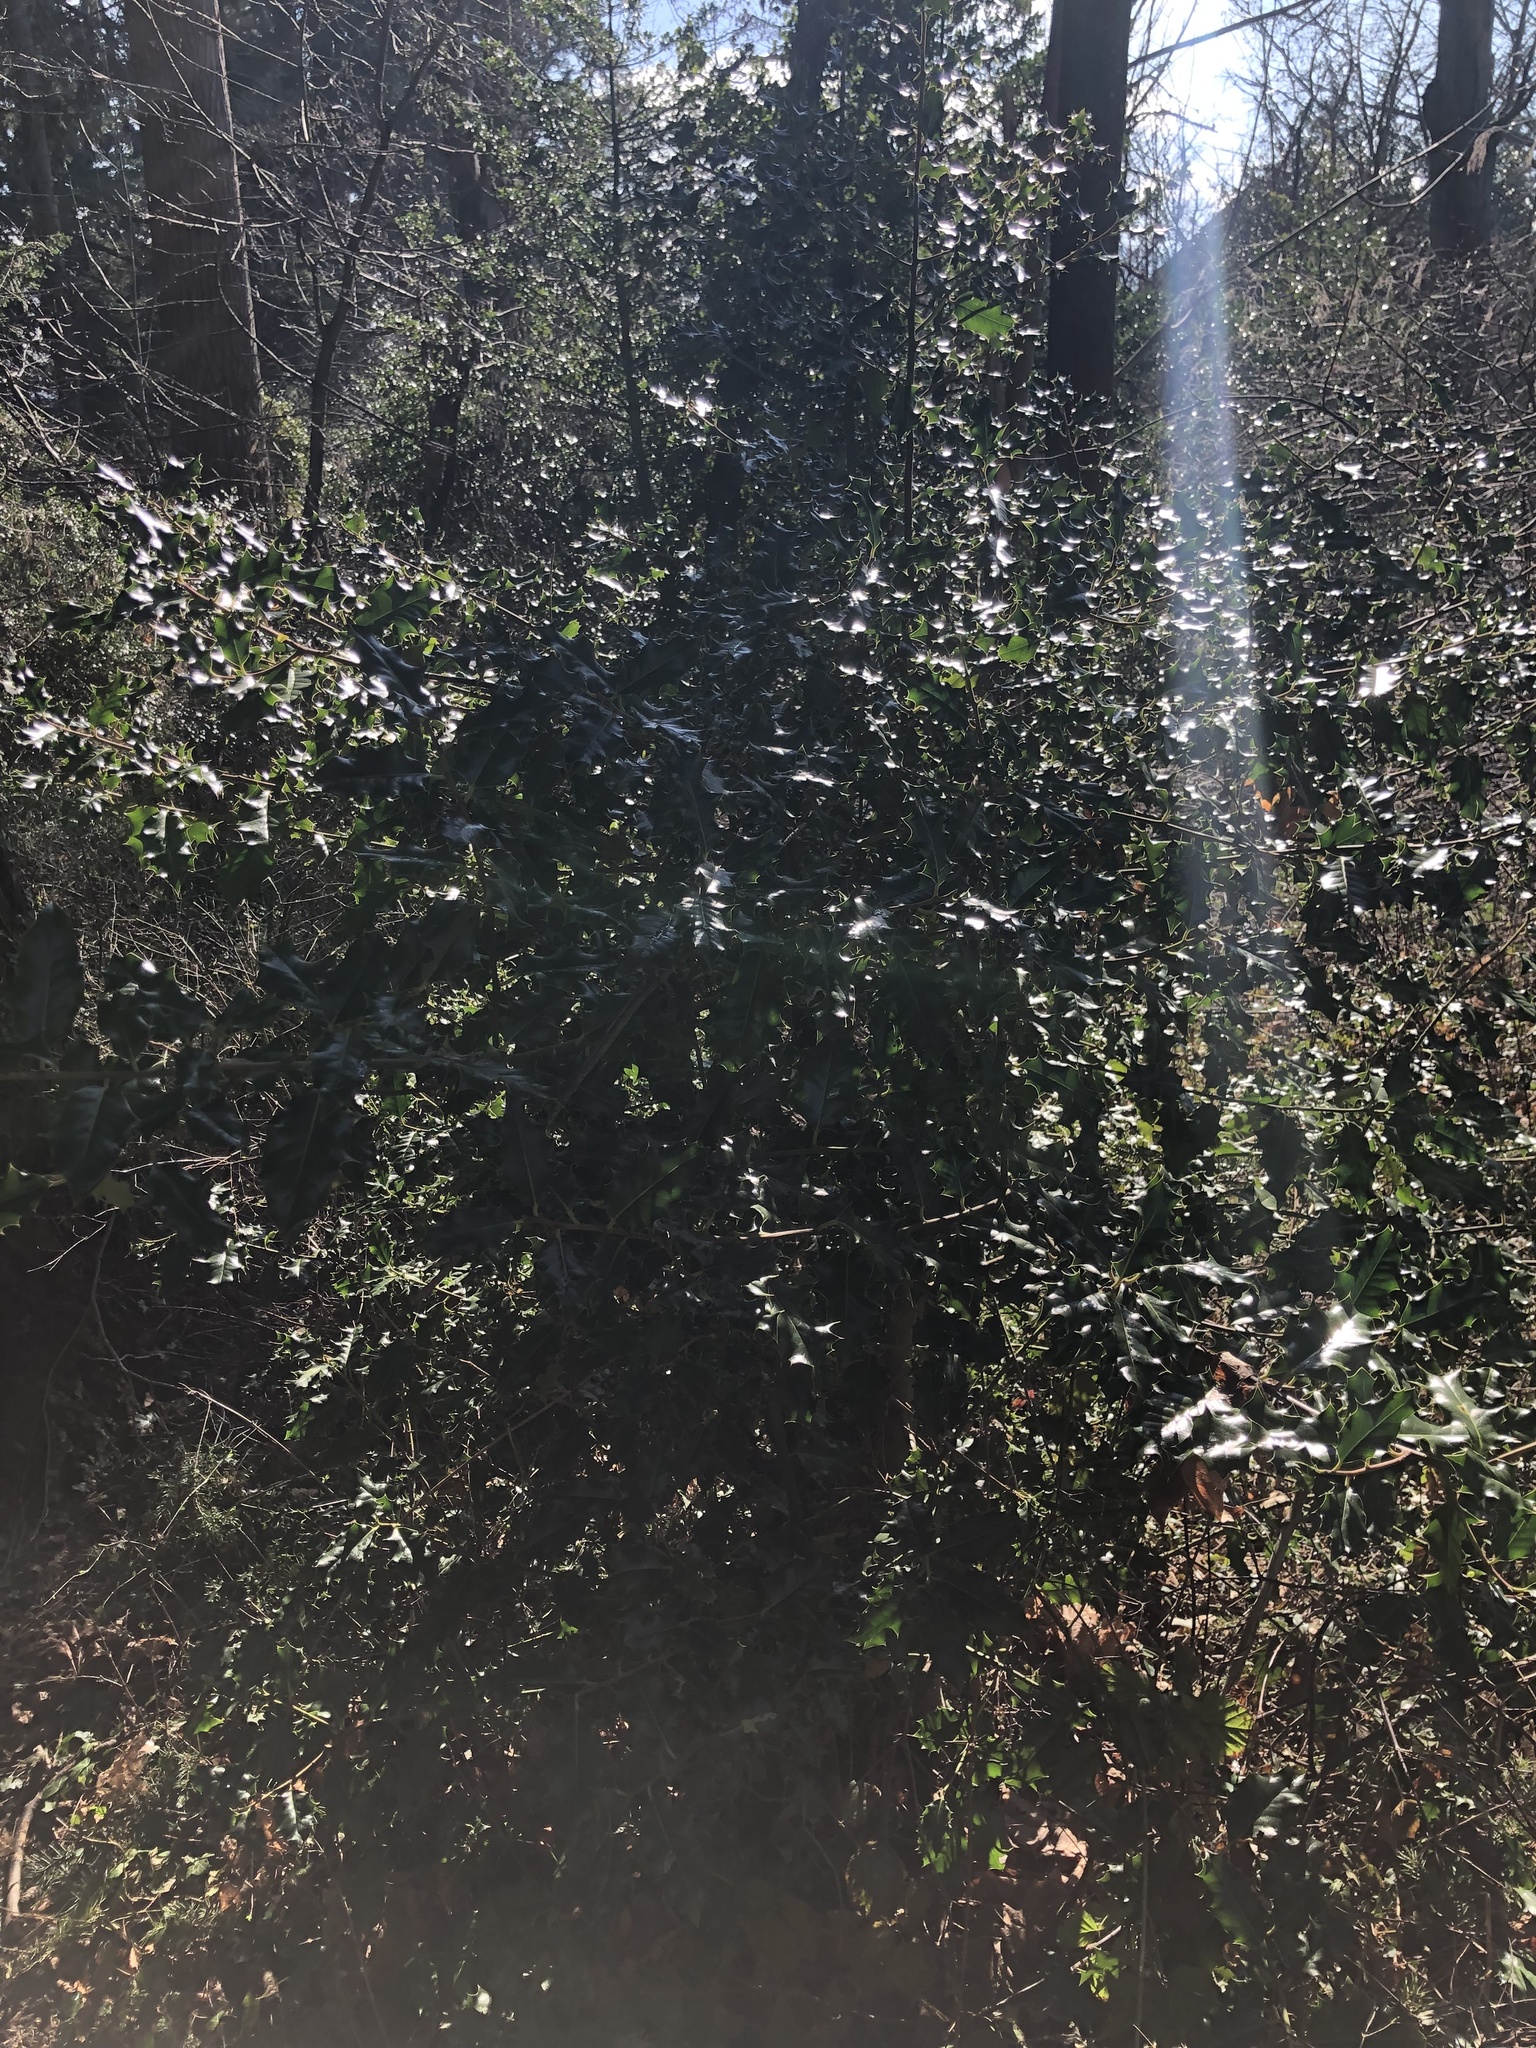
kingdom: Plantae
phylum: Tracheophyta
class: Magnoliopsida
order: Aquifoliales
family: Aquifoliaceae
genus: Ilex
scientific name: Ilex aquifolium
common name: English holly
